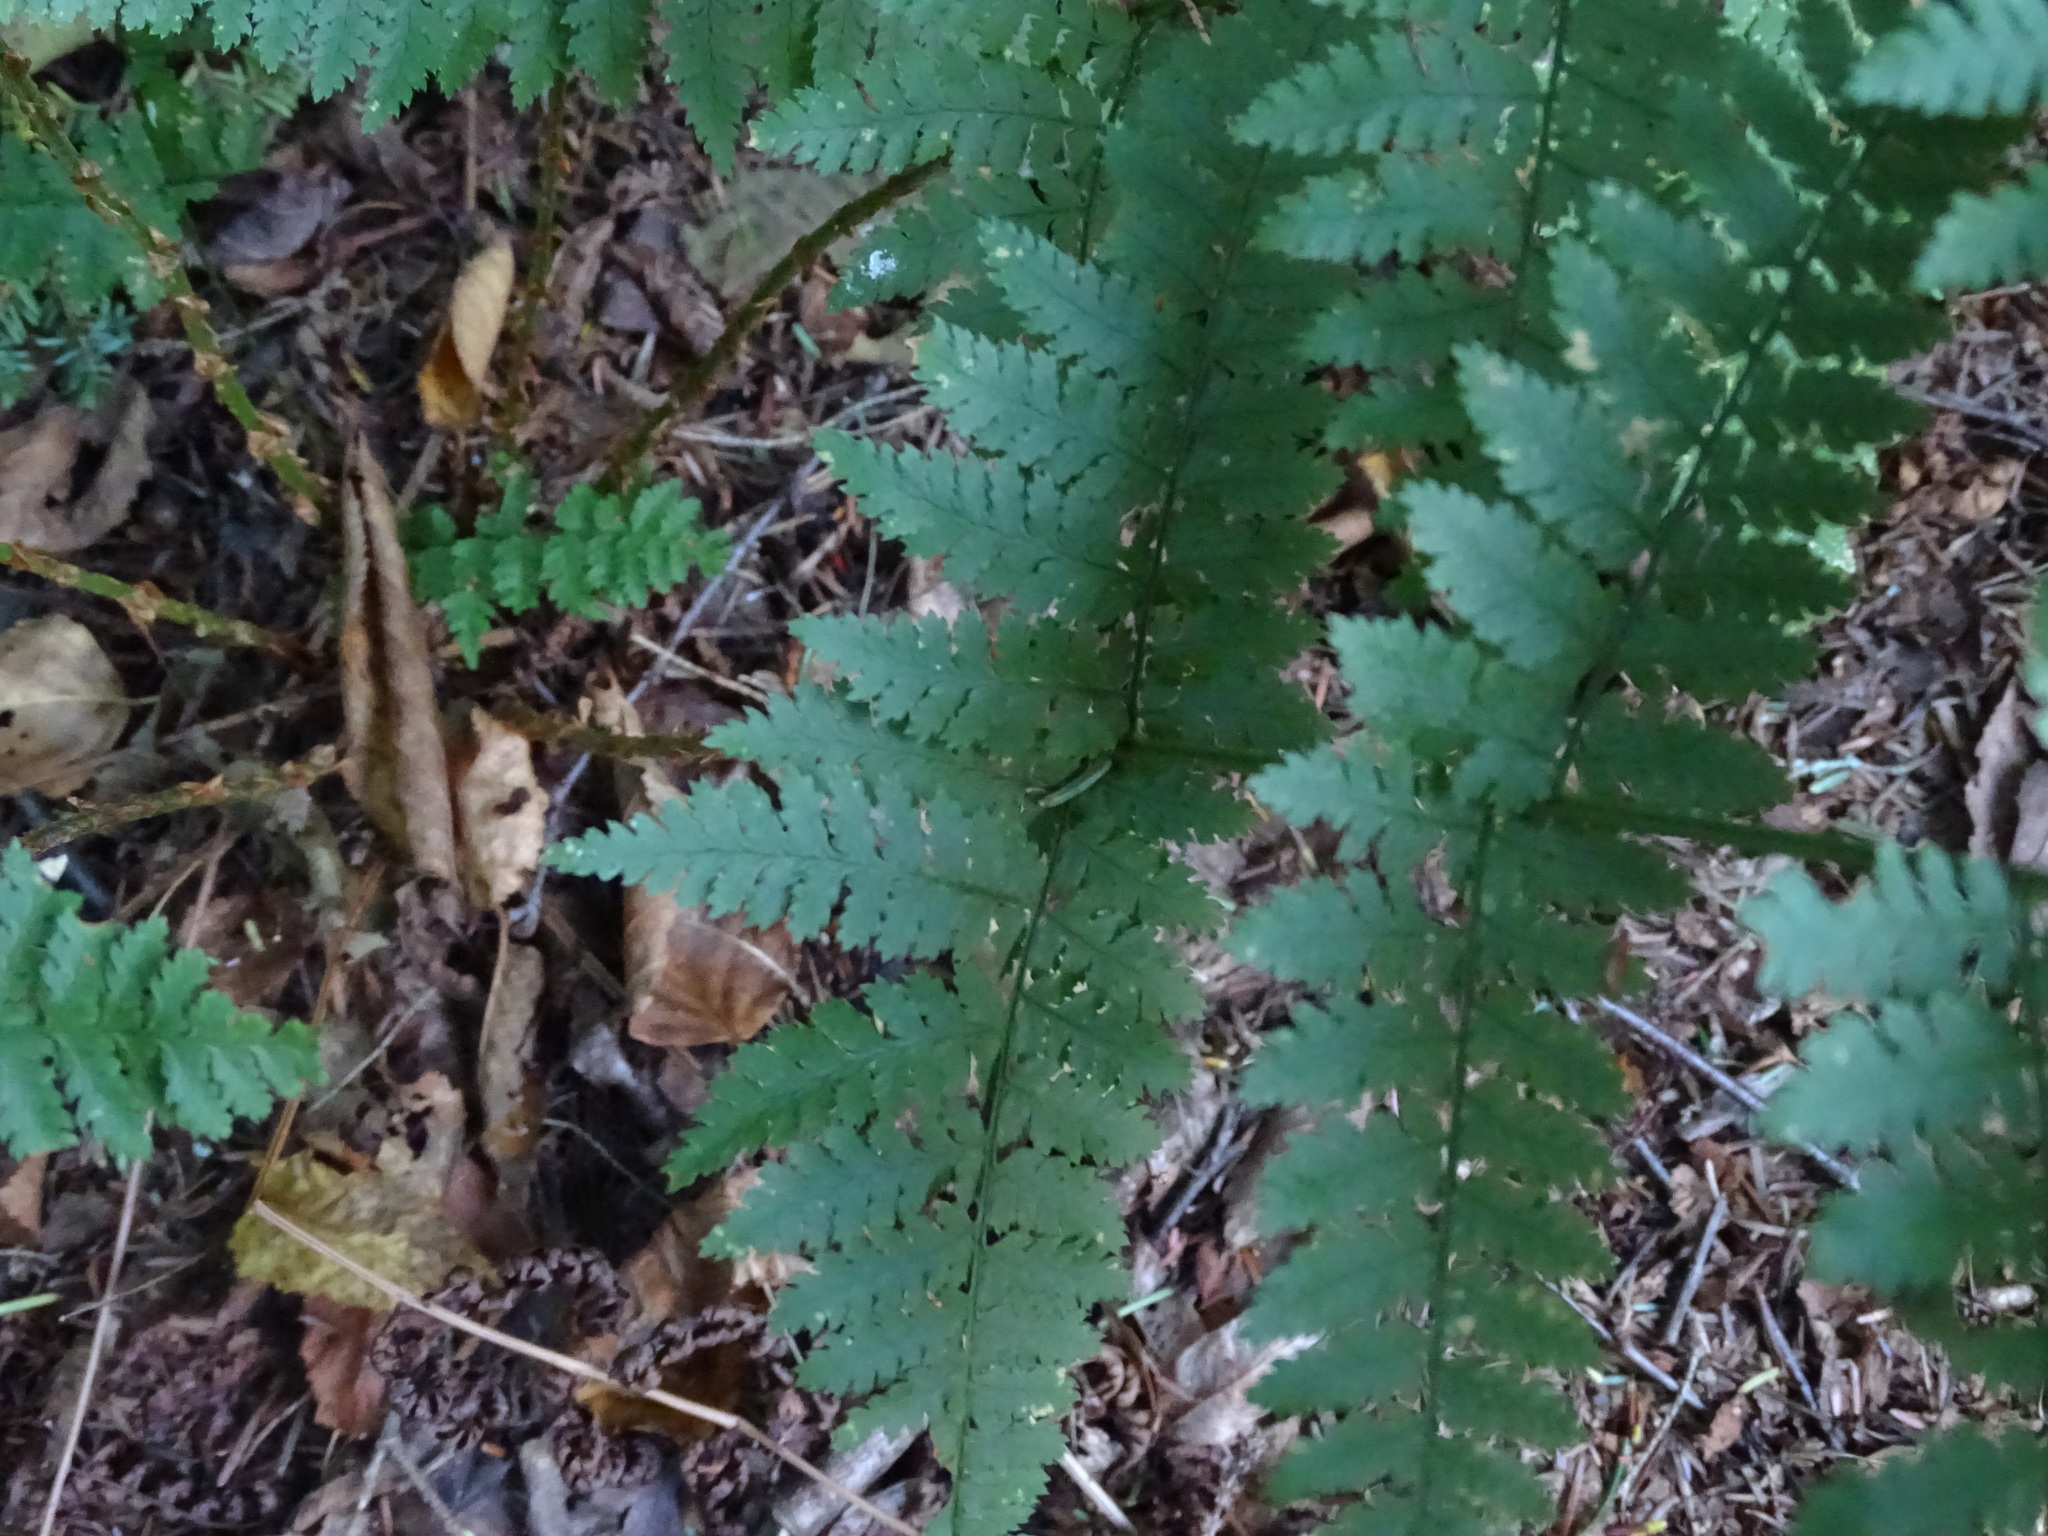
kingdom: Plantae
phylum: Tracheophyta
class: Polypodiopsida
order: Polypodiales
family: Dryopteridaceae
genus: Dryopteris
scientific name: Dryopteris intermedia
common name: Evergreen wood fern
